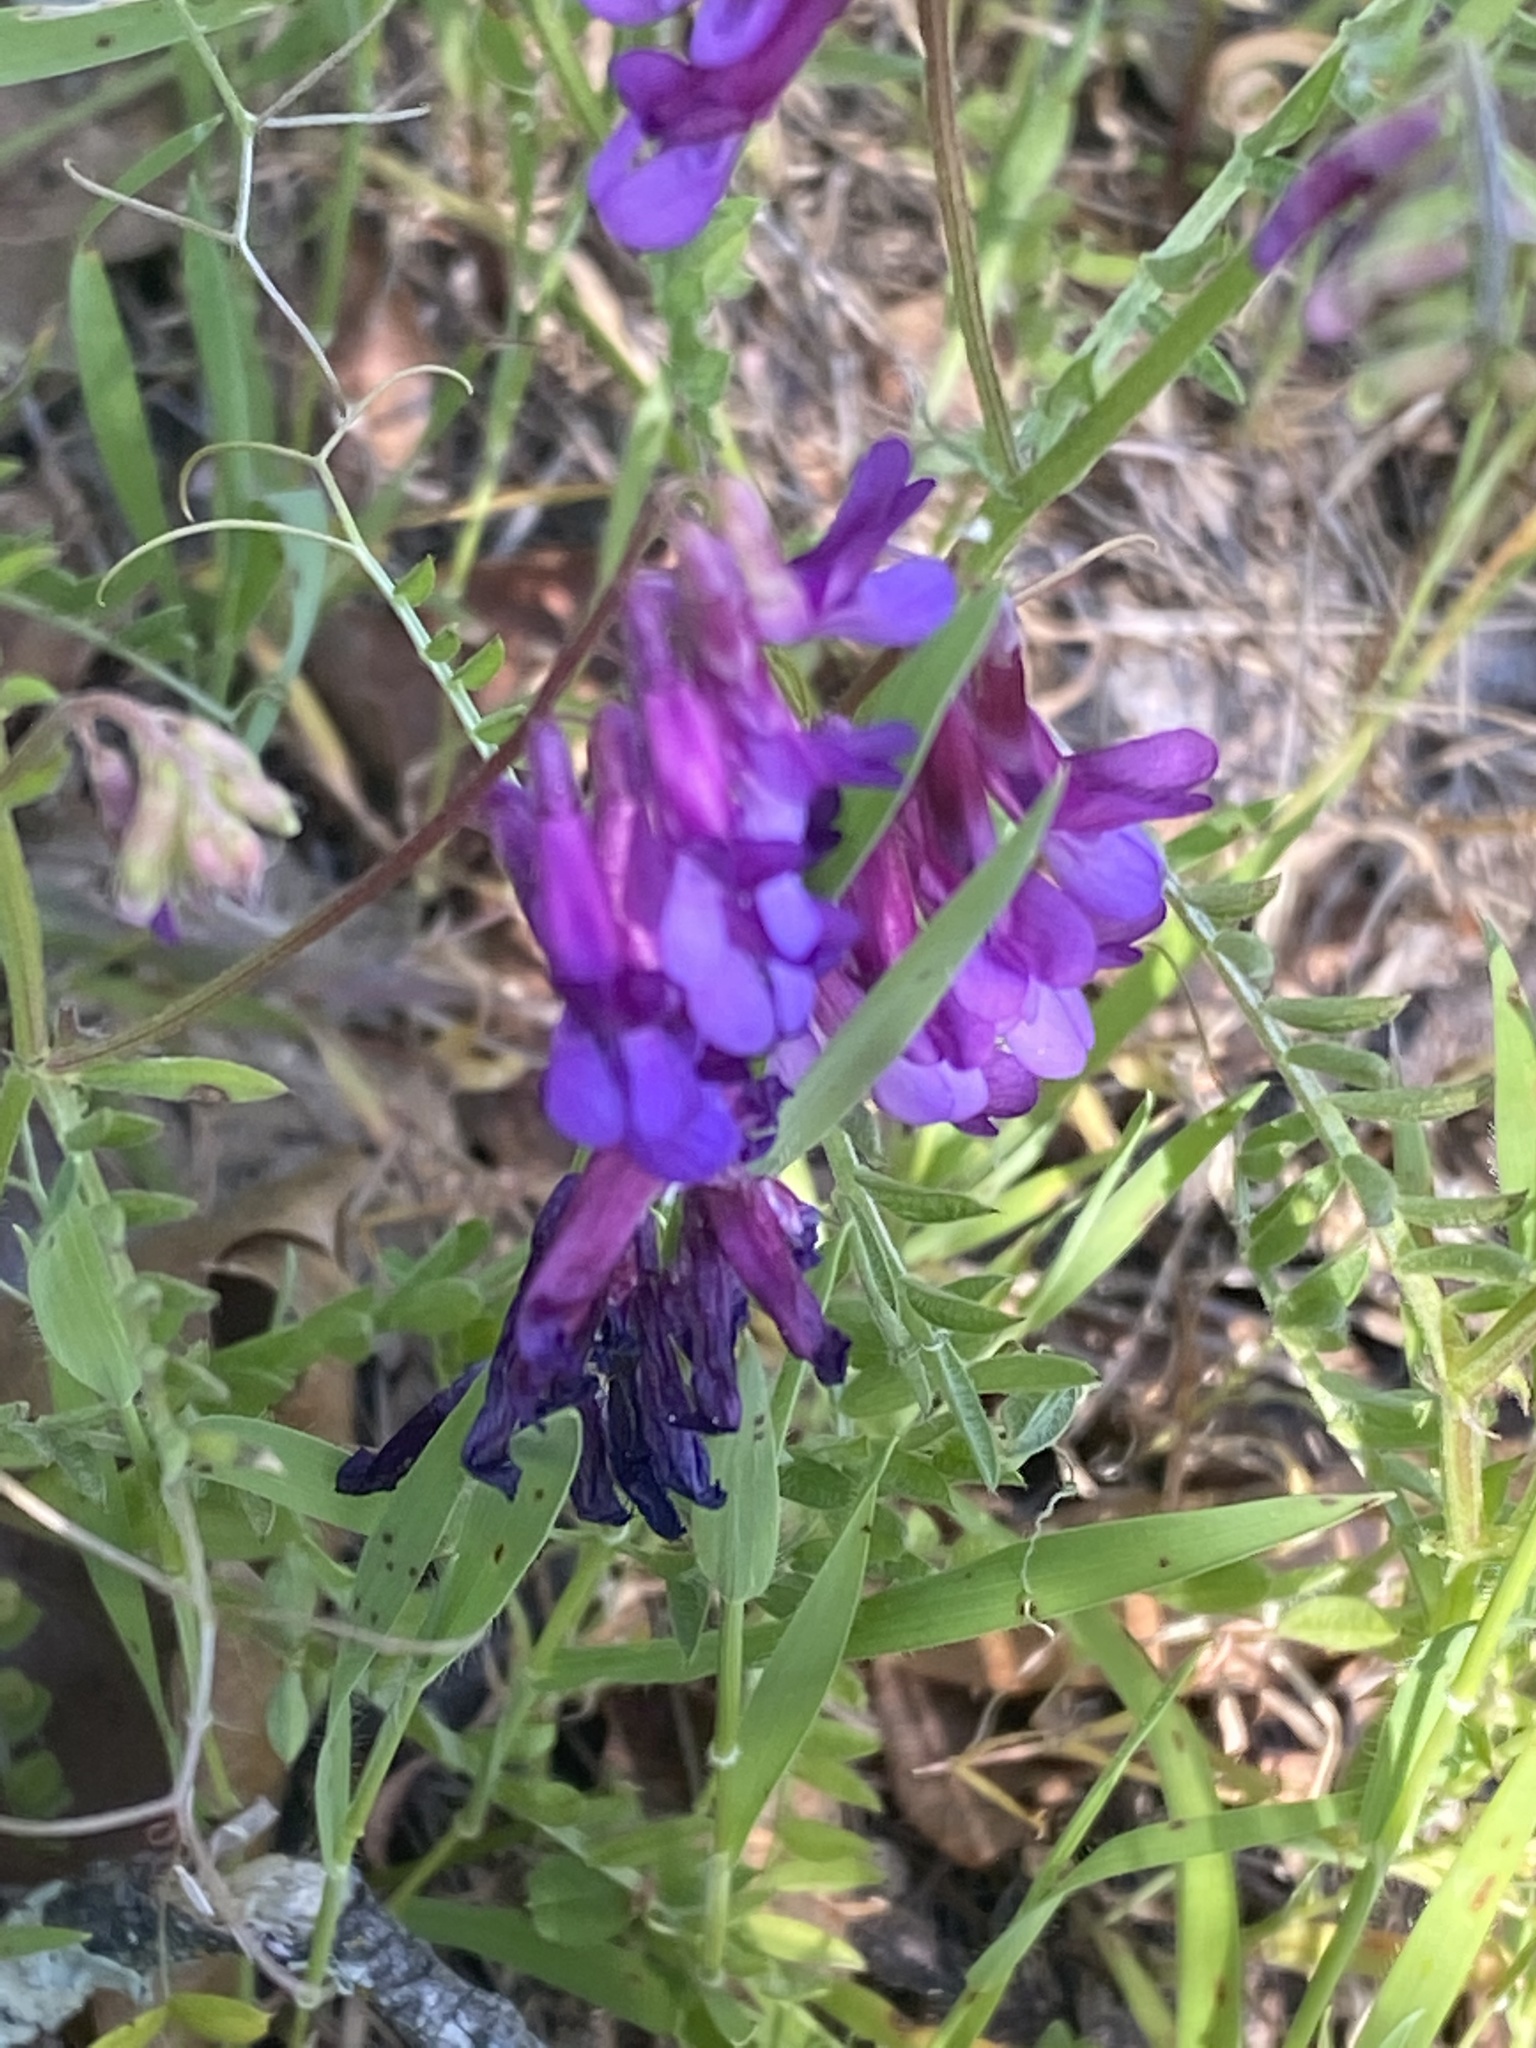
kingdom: Plantae
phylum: Tracheophyta
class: Magnoliopsida
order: Fabales
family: Fabaceae
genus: Vicia
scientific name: Vicia villosa
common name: Fodder vetch
